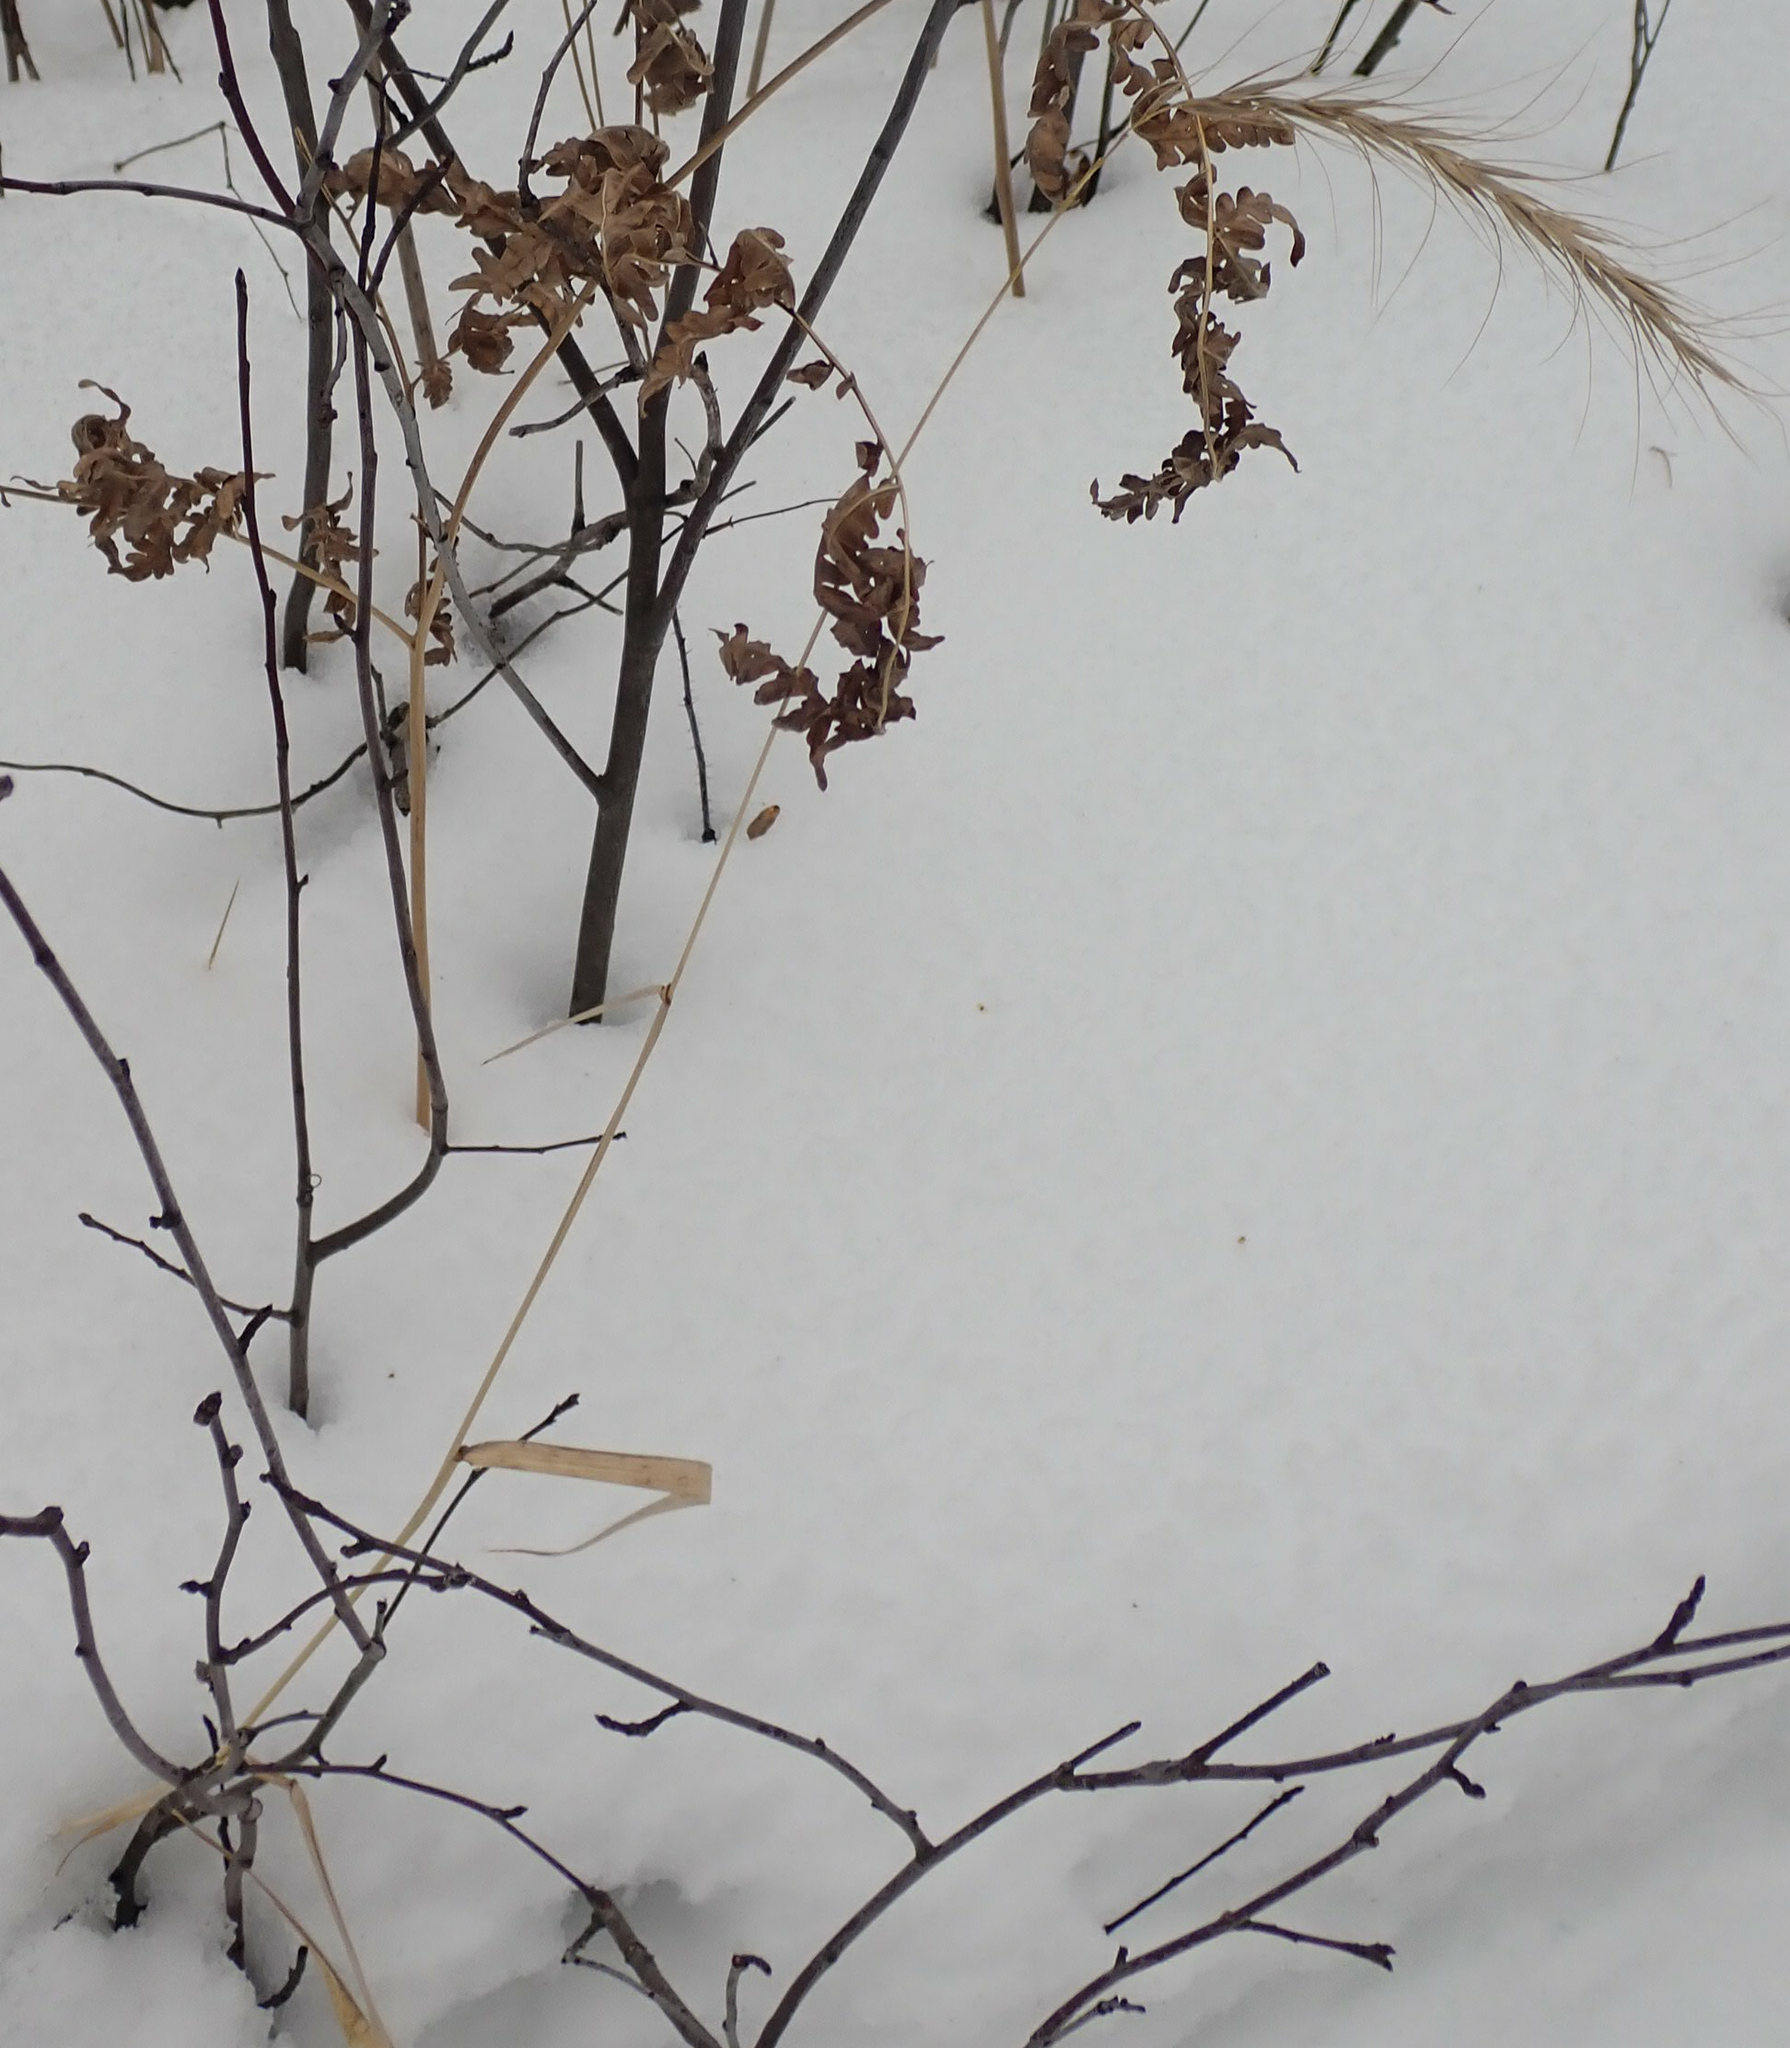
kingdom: Plantae
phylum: Tracheophyta
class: Liliopsida
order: Poales
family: Poaceae
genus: Elymus
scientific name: Elymus canadensis
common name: Canada wild rye
